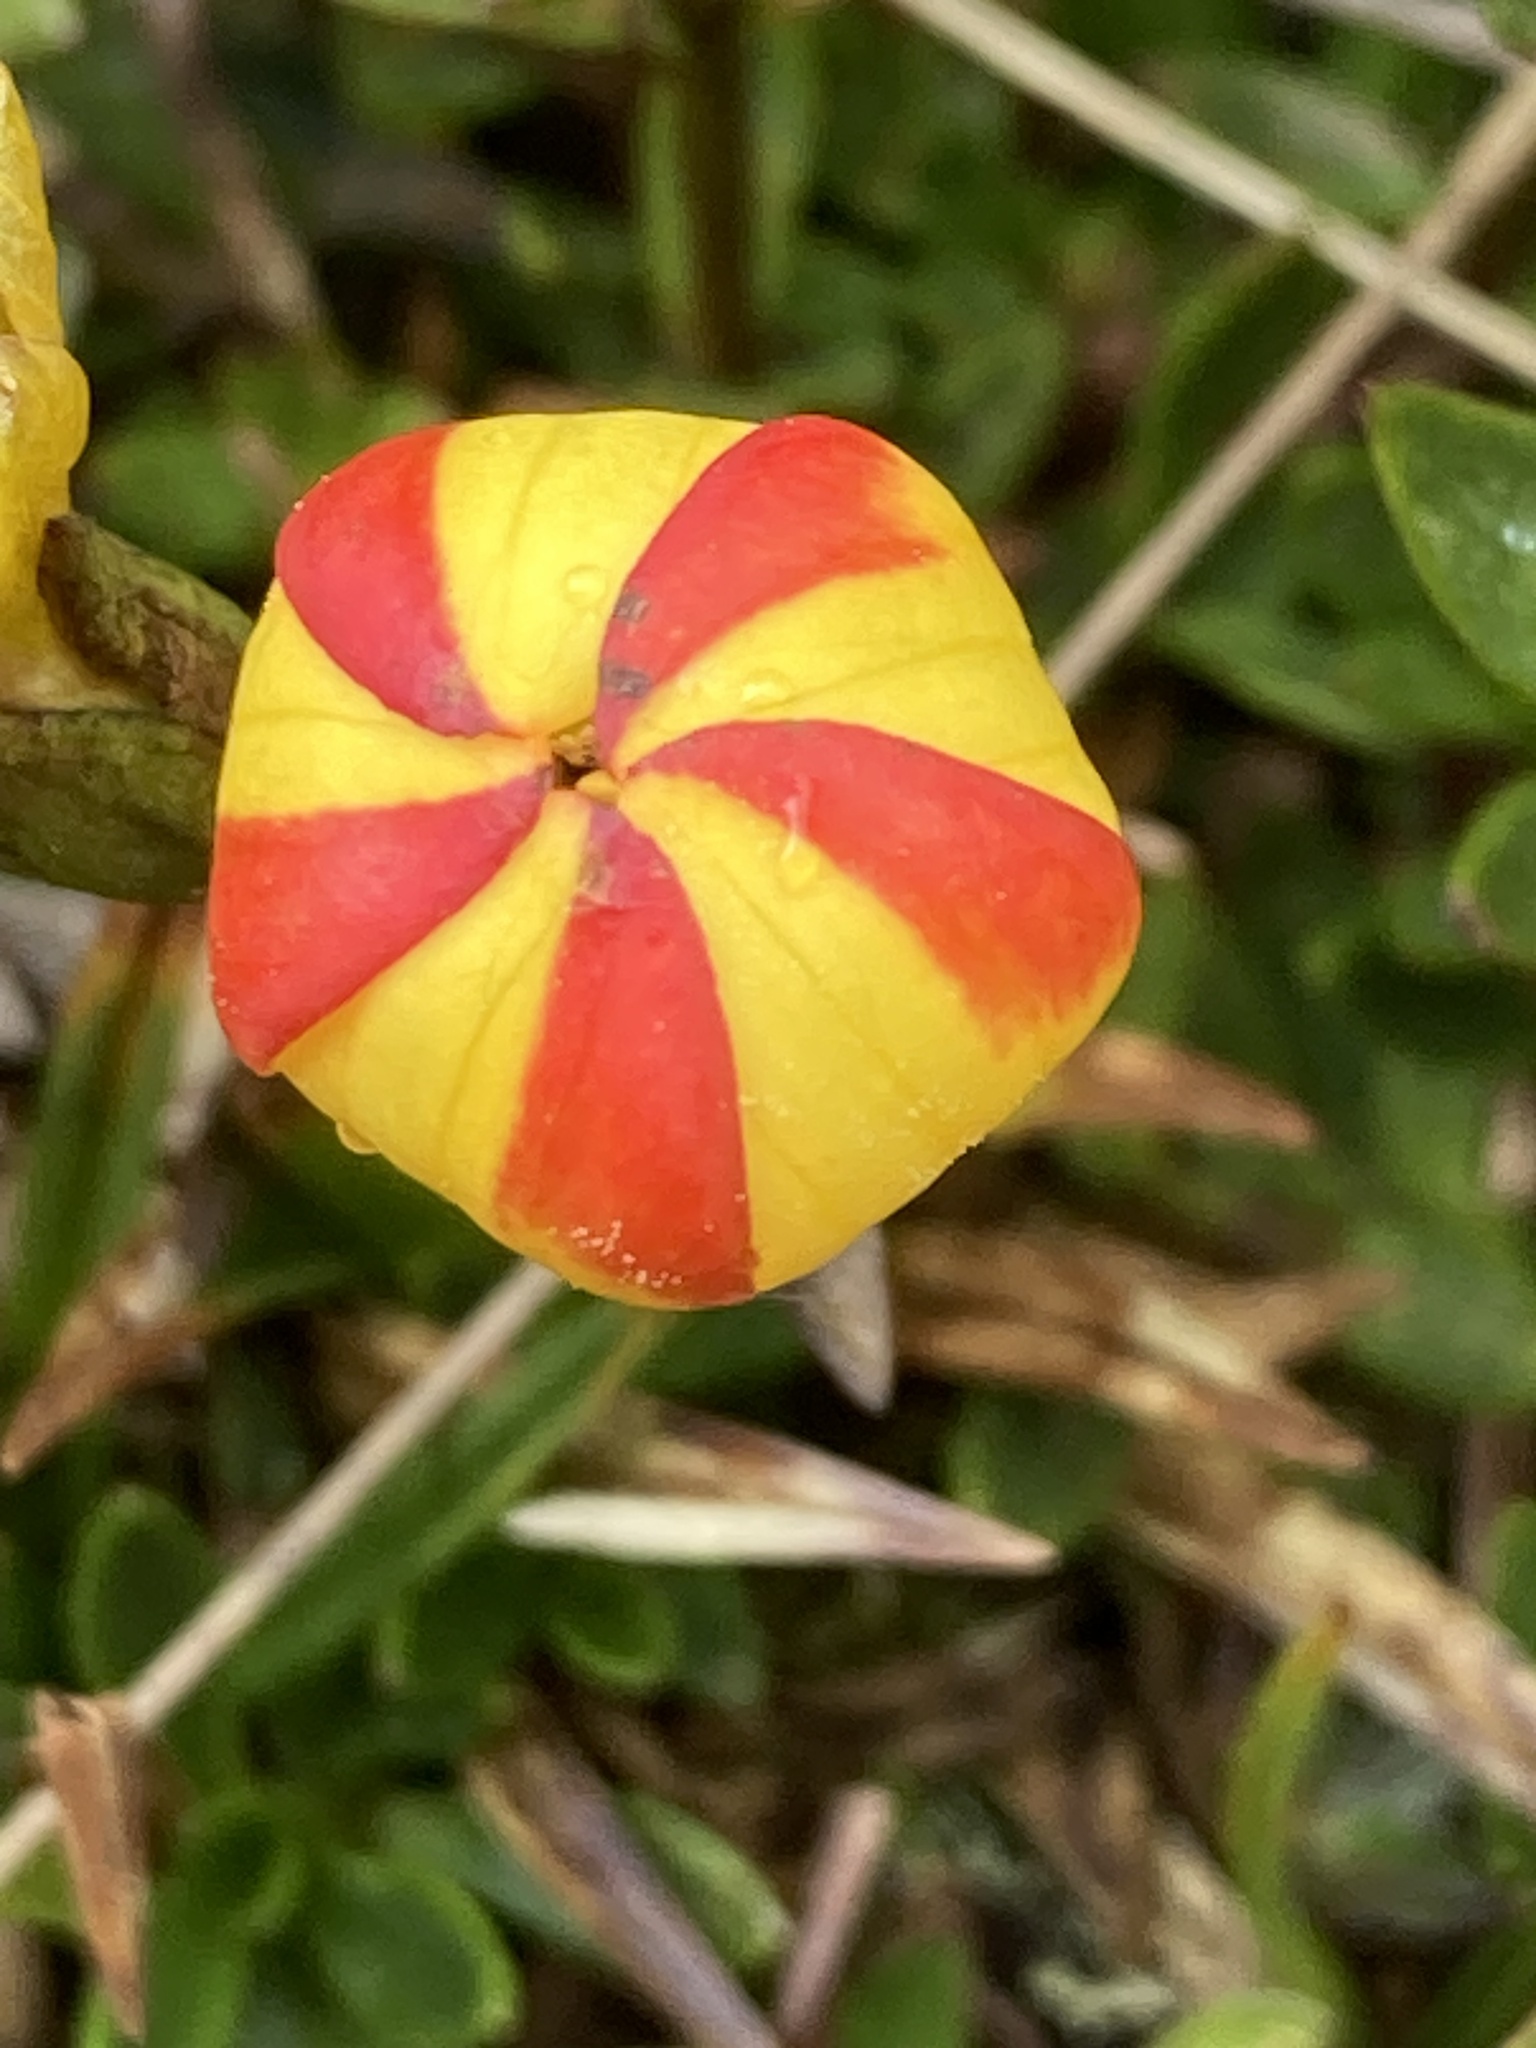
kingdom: Plantae
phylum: Tracheophyta
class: Magnoliopsida
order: Gentianales
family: Gentianaceae
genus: Gentianella
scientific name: Gentianella hirculus
